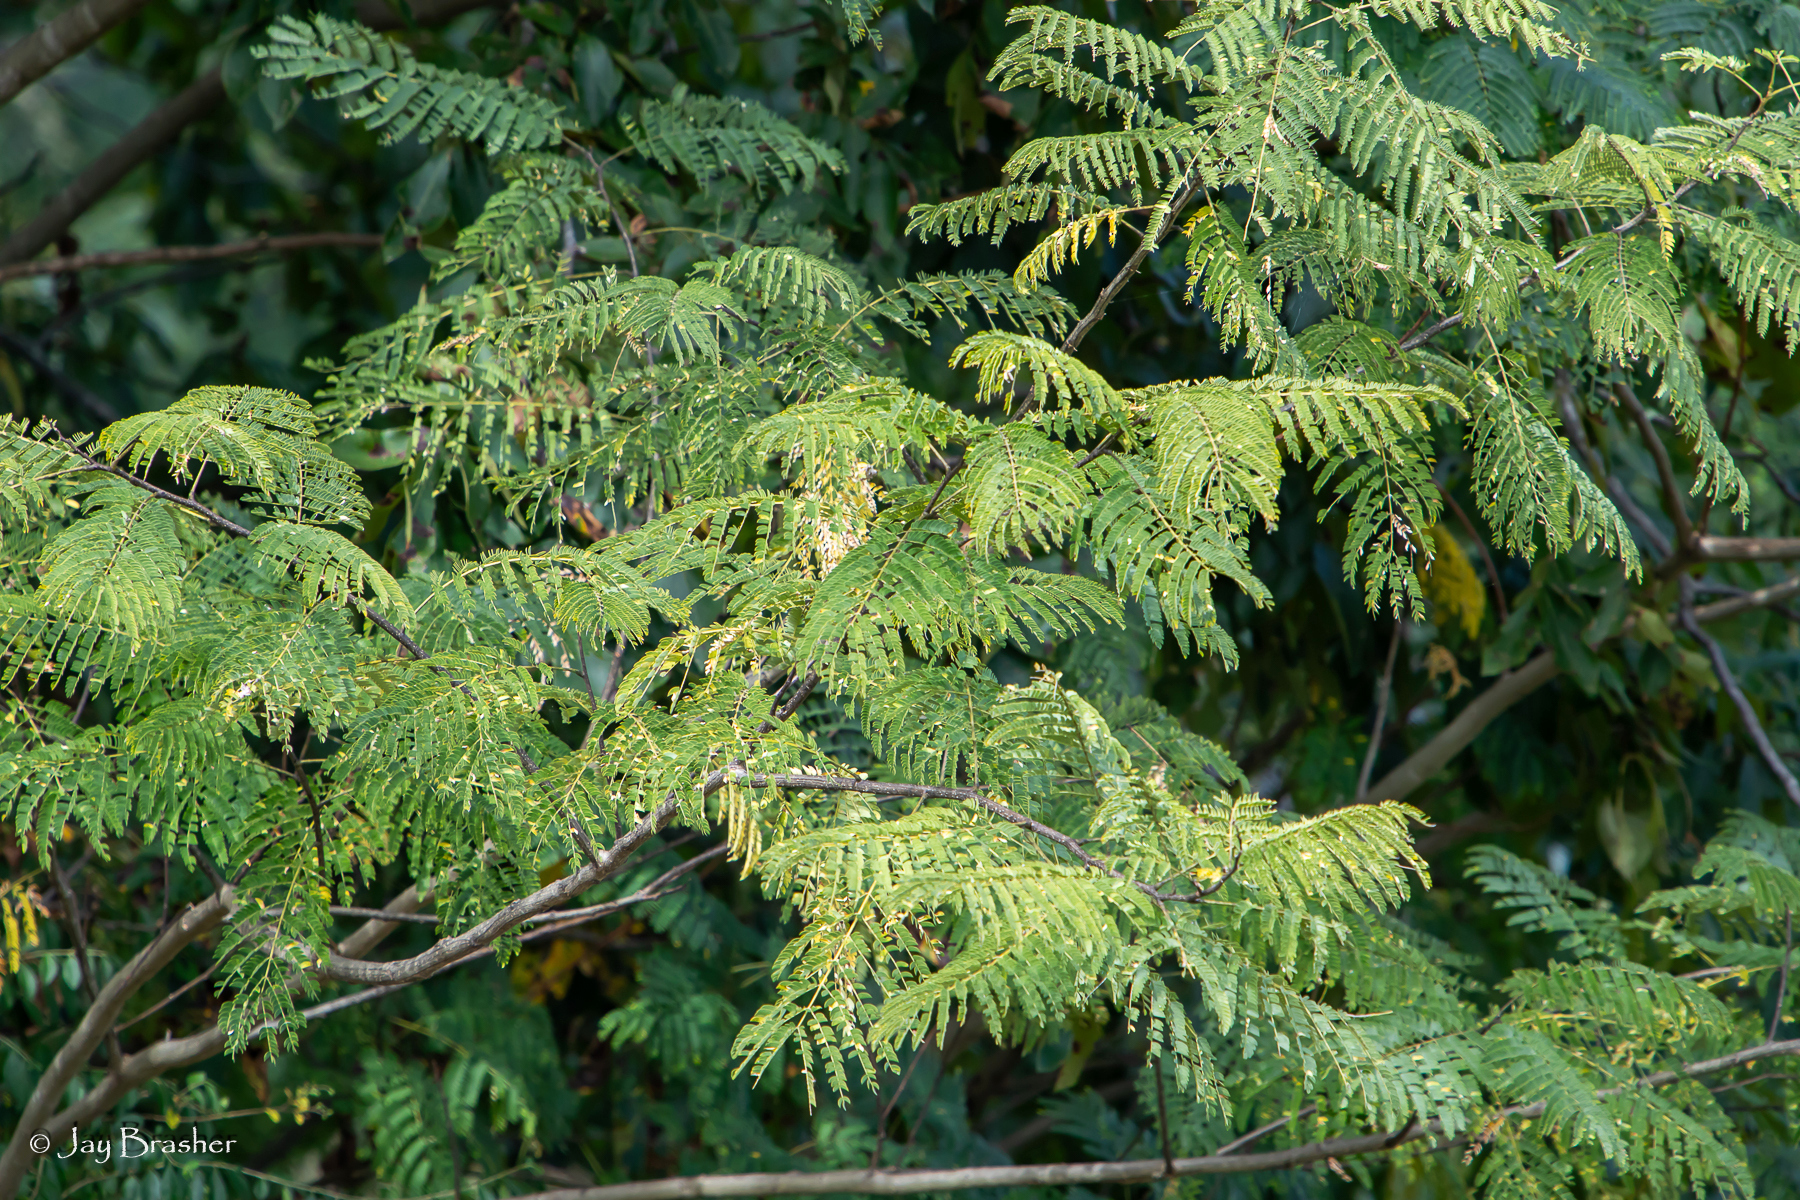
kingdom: Plantae
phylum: Tracheophyta
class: Magnoliopsida
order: Fabales
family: Fabaceae
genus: Albizia
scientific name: Albizia julibrissin
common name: Silktree
